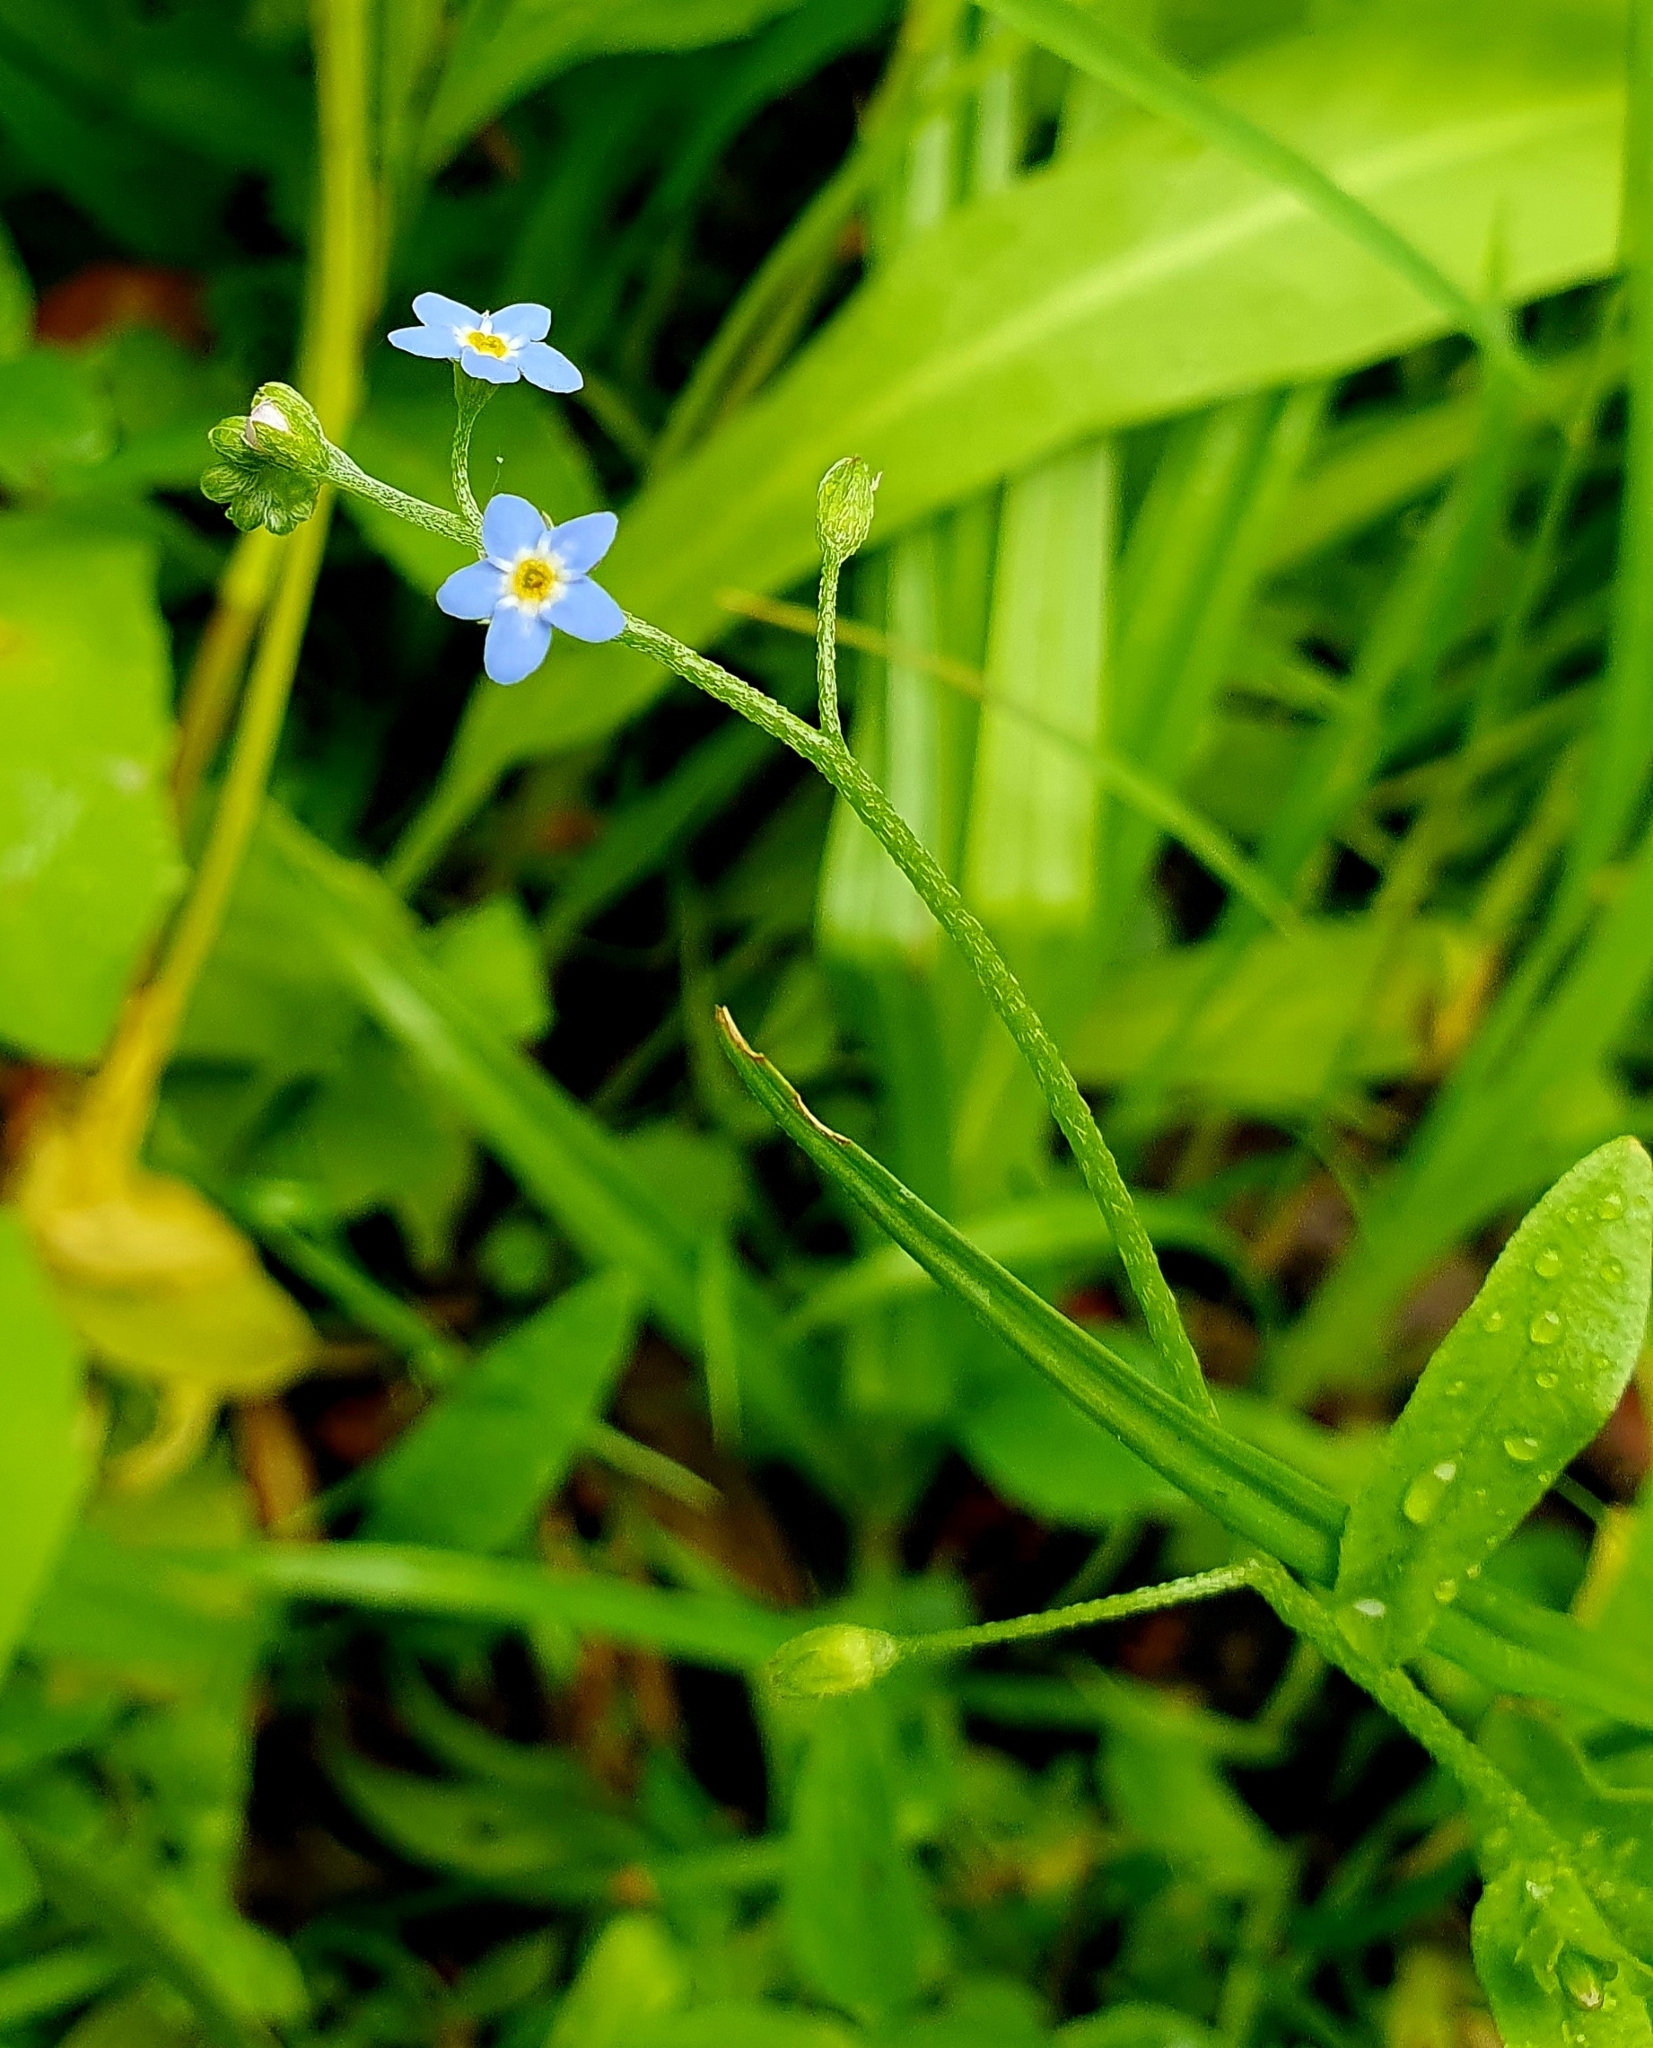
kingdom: Plantae
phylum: Tracheophyta
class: Magnoliopsida
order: Boraginales
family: Boraginaceae
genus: Myosotis
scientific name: Myosotis laxa
